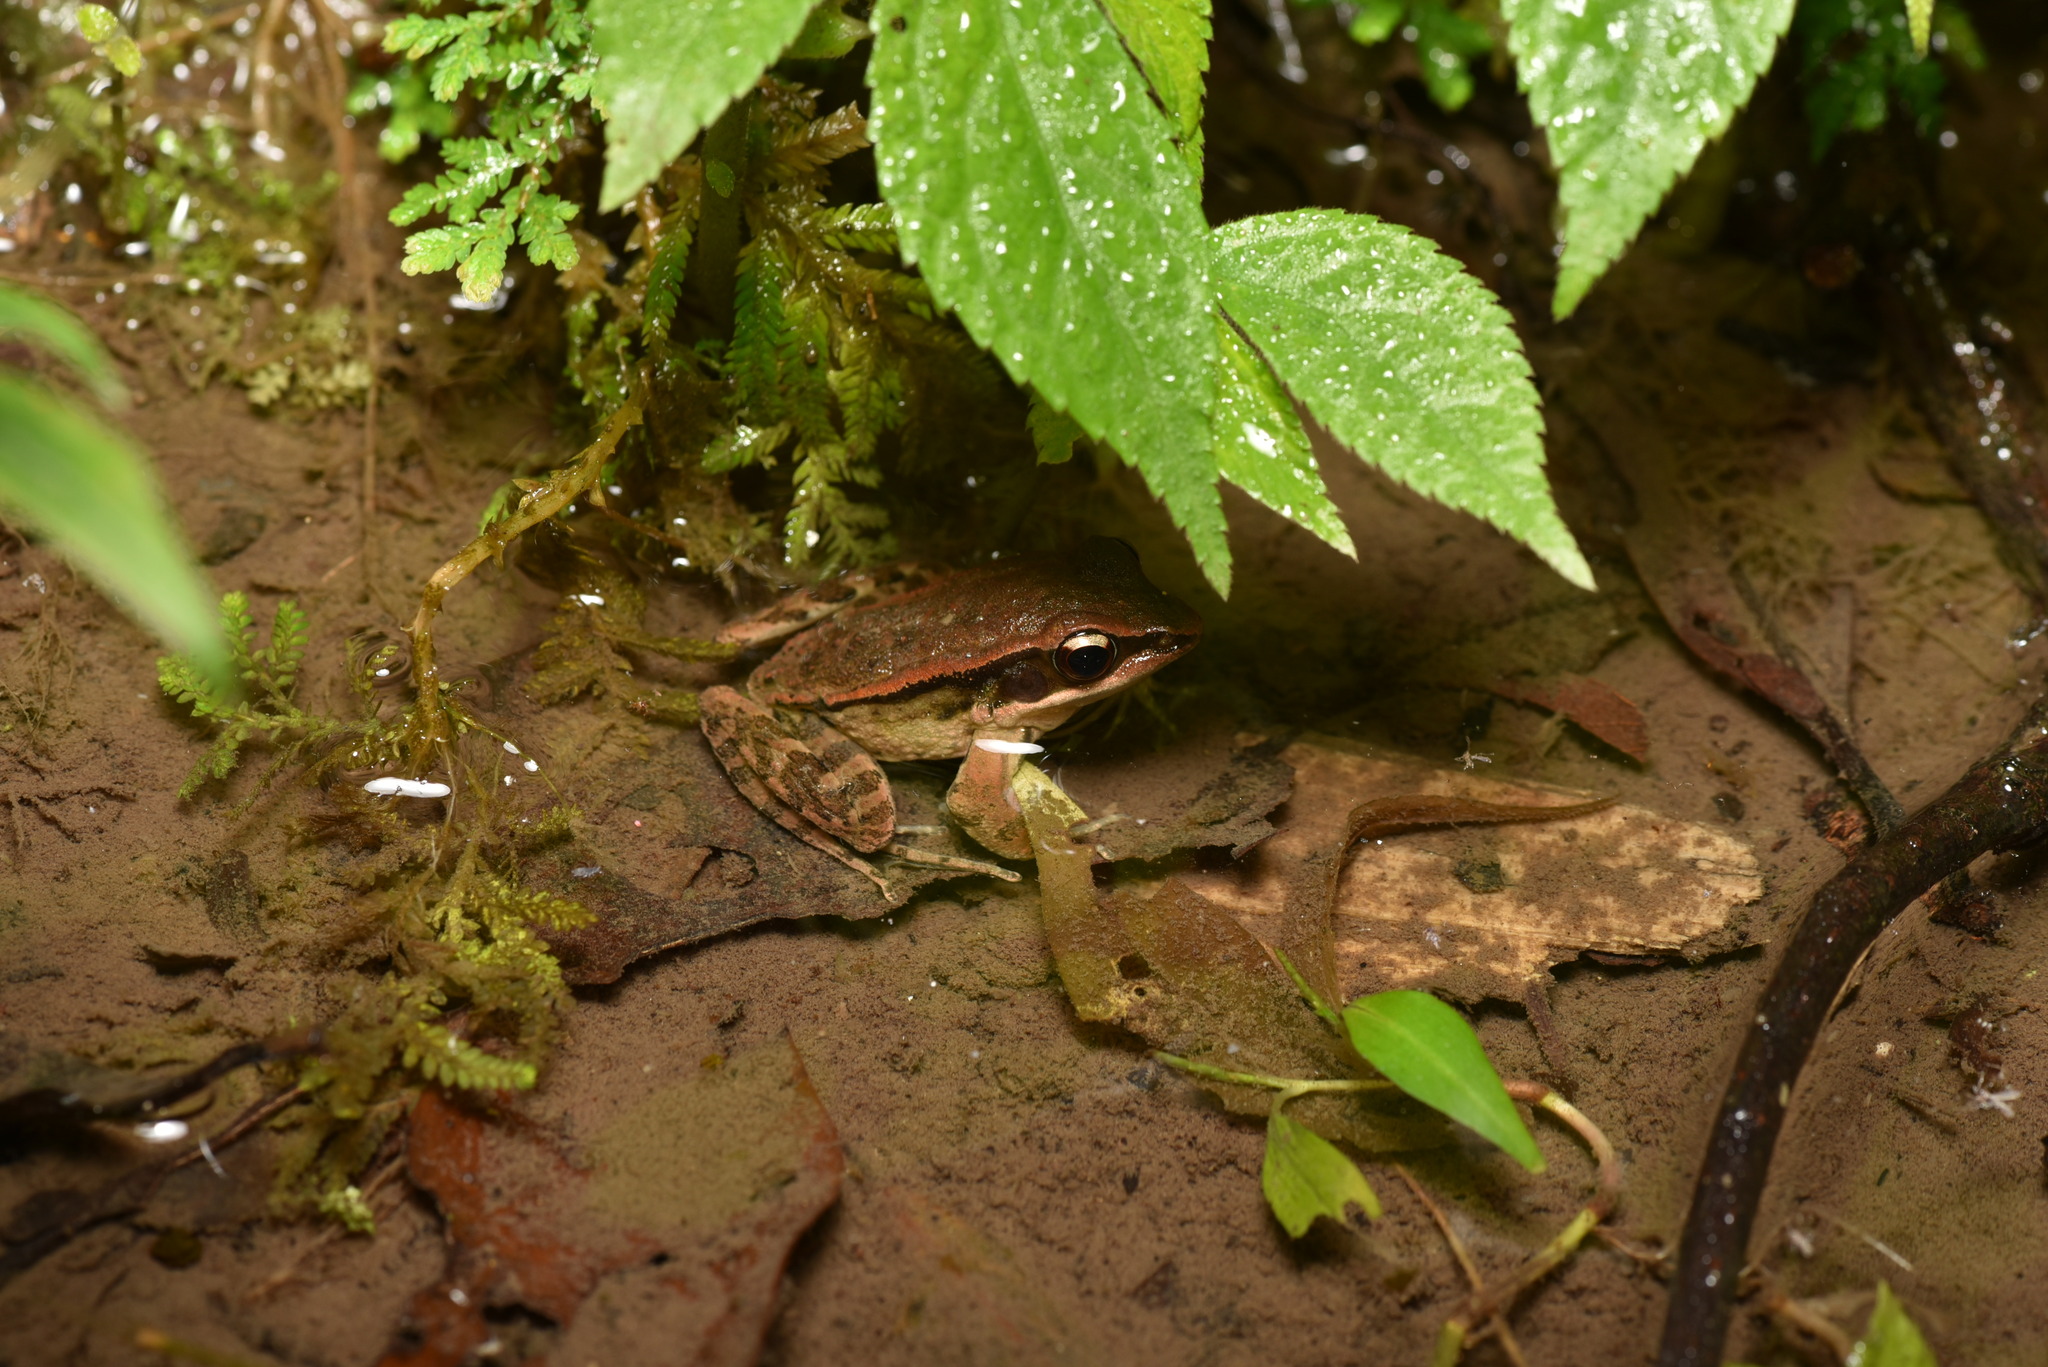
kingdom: Animalia
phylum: Chordata
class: Amphibia
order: Anura
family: Ranidae
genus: Hylarana
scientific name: Hylarana latouchii
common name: Broad-folded frog
